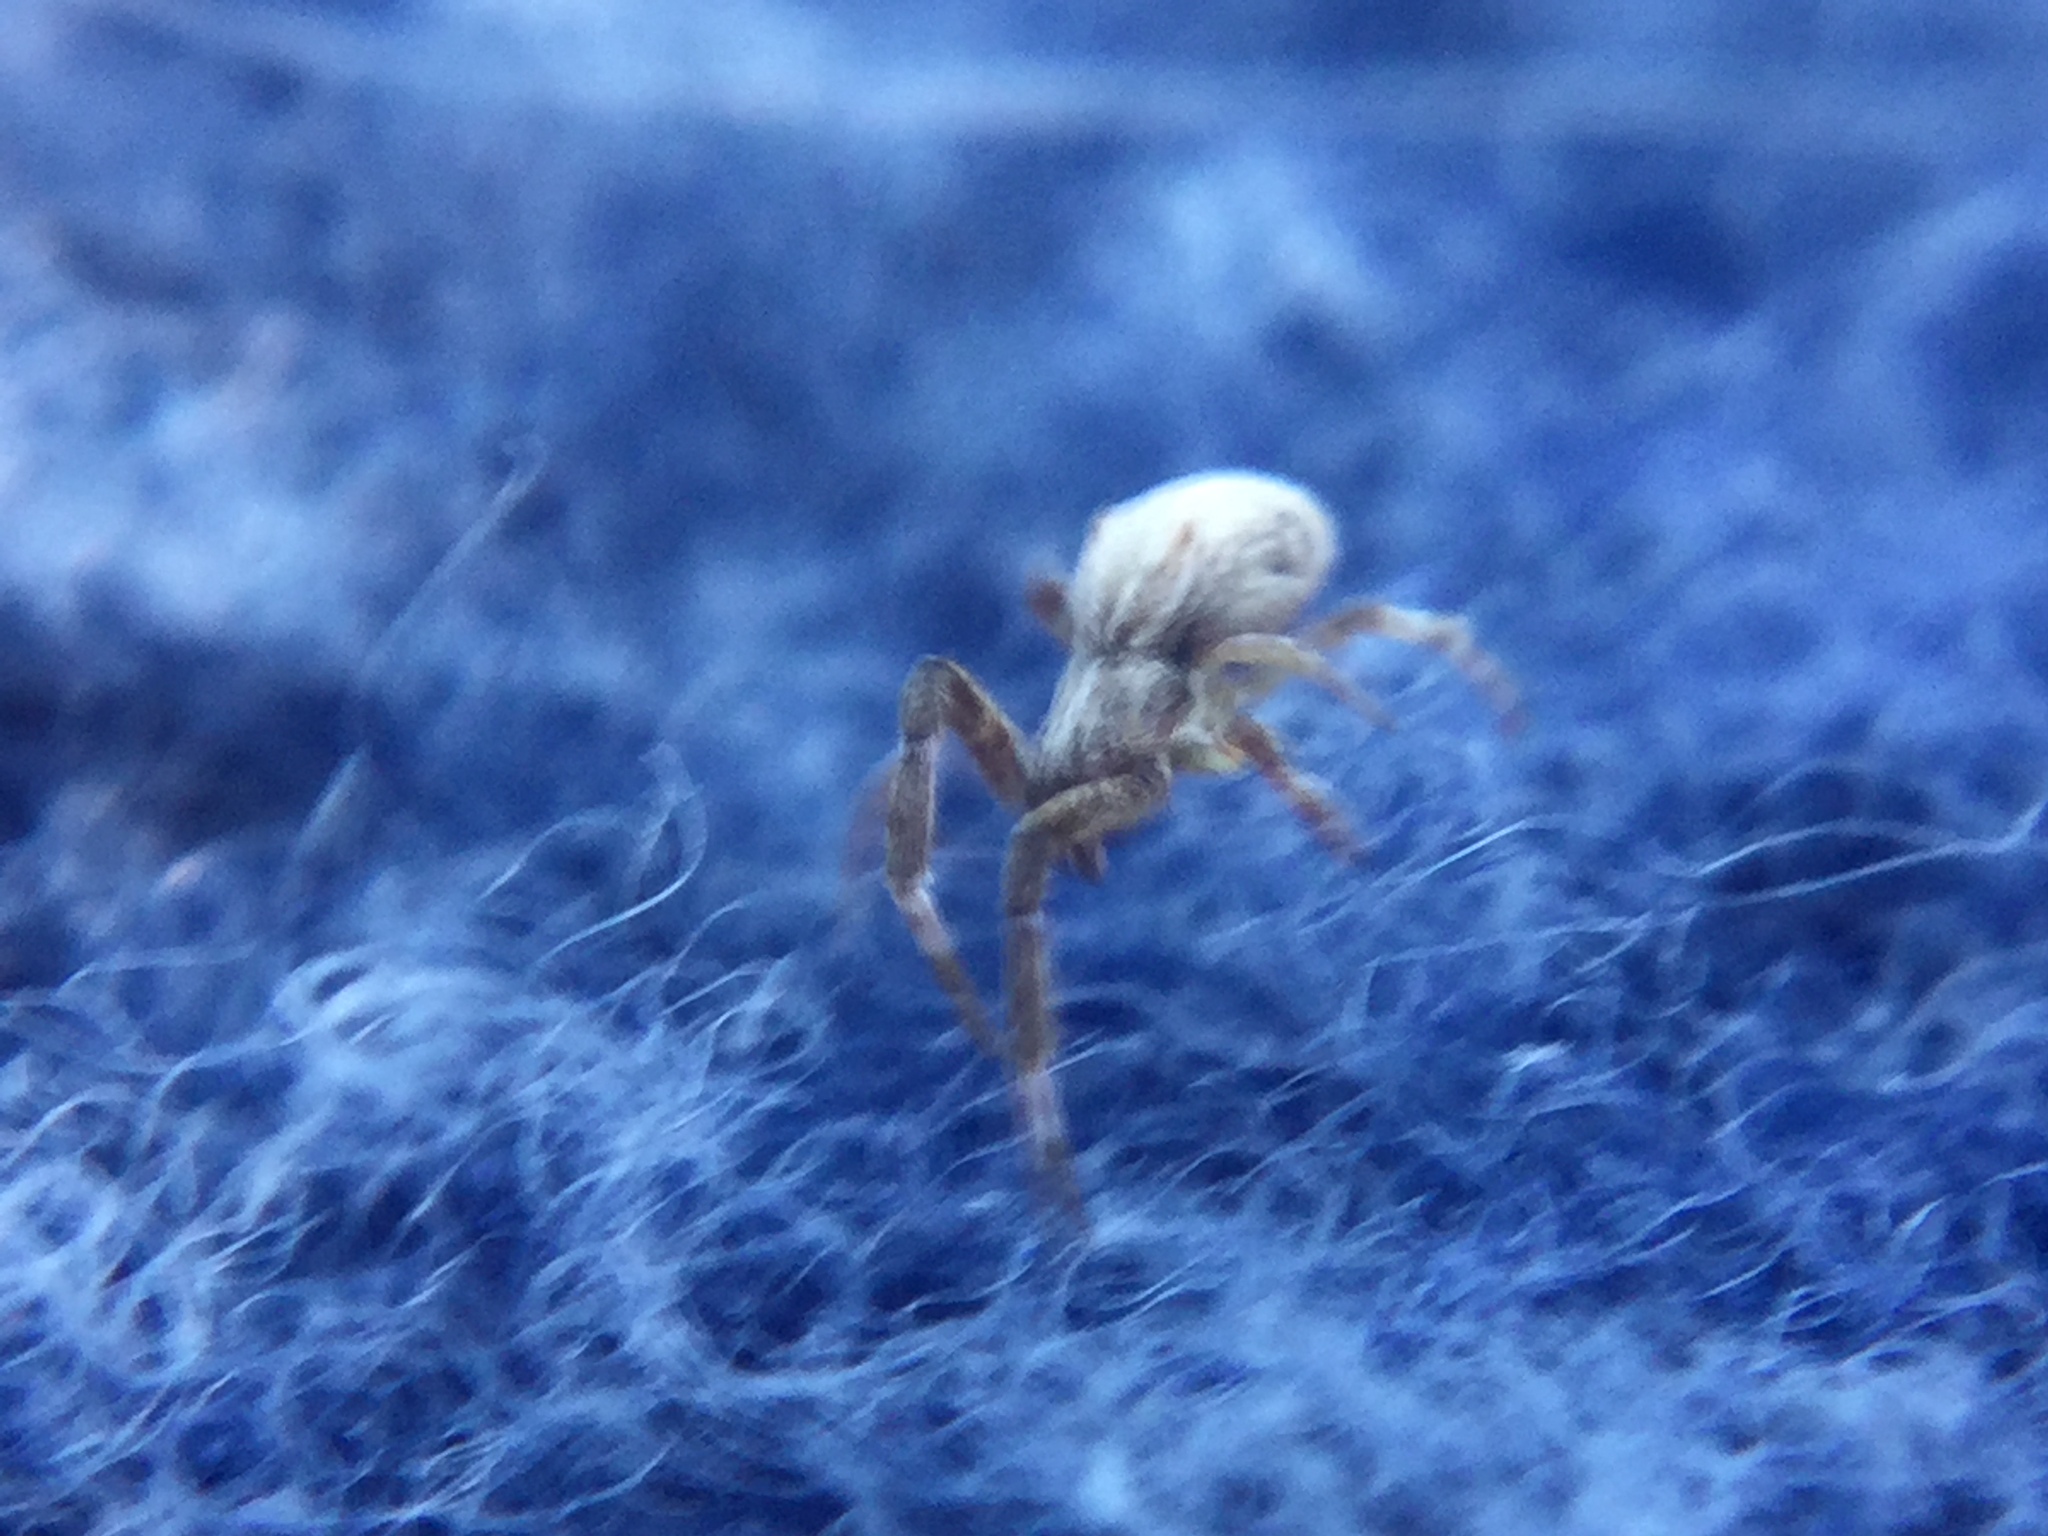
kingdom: Animalia
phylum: Arthropoda
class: Arachnida
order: Araneae
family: Uloboridae
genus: Uloborus
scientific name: Uloborus glomosus
